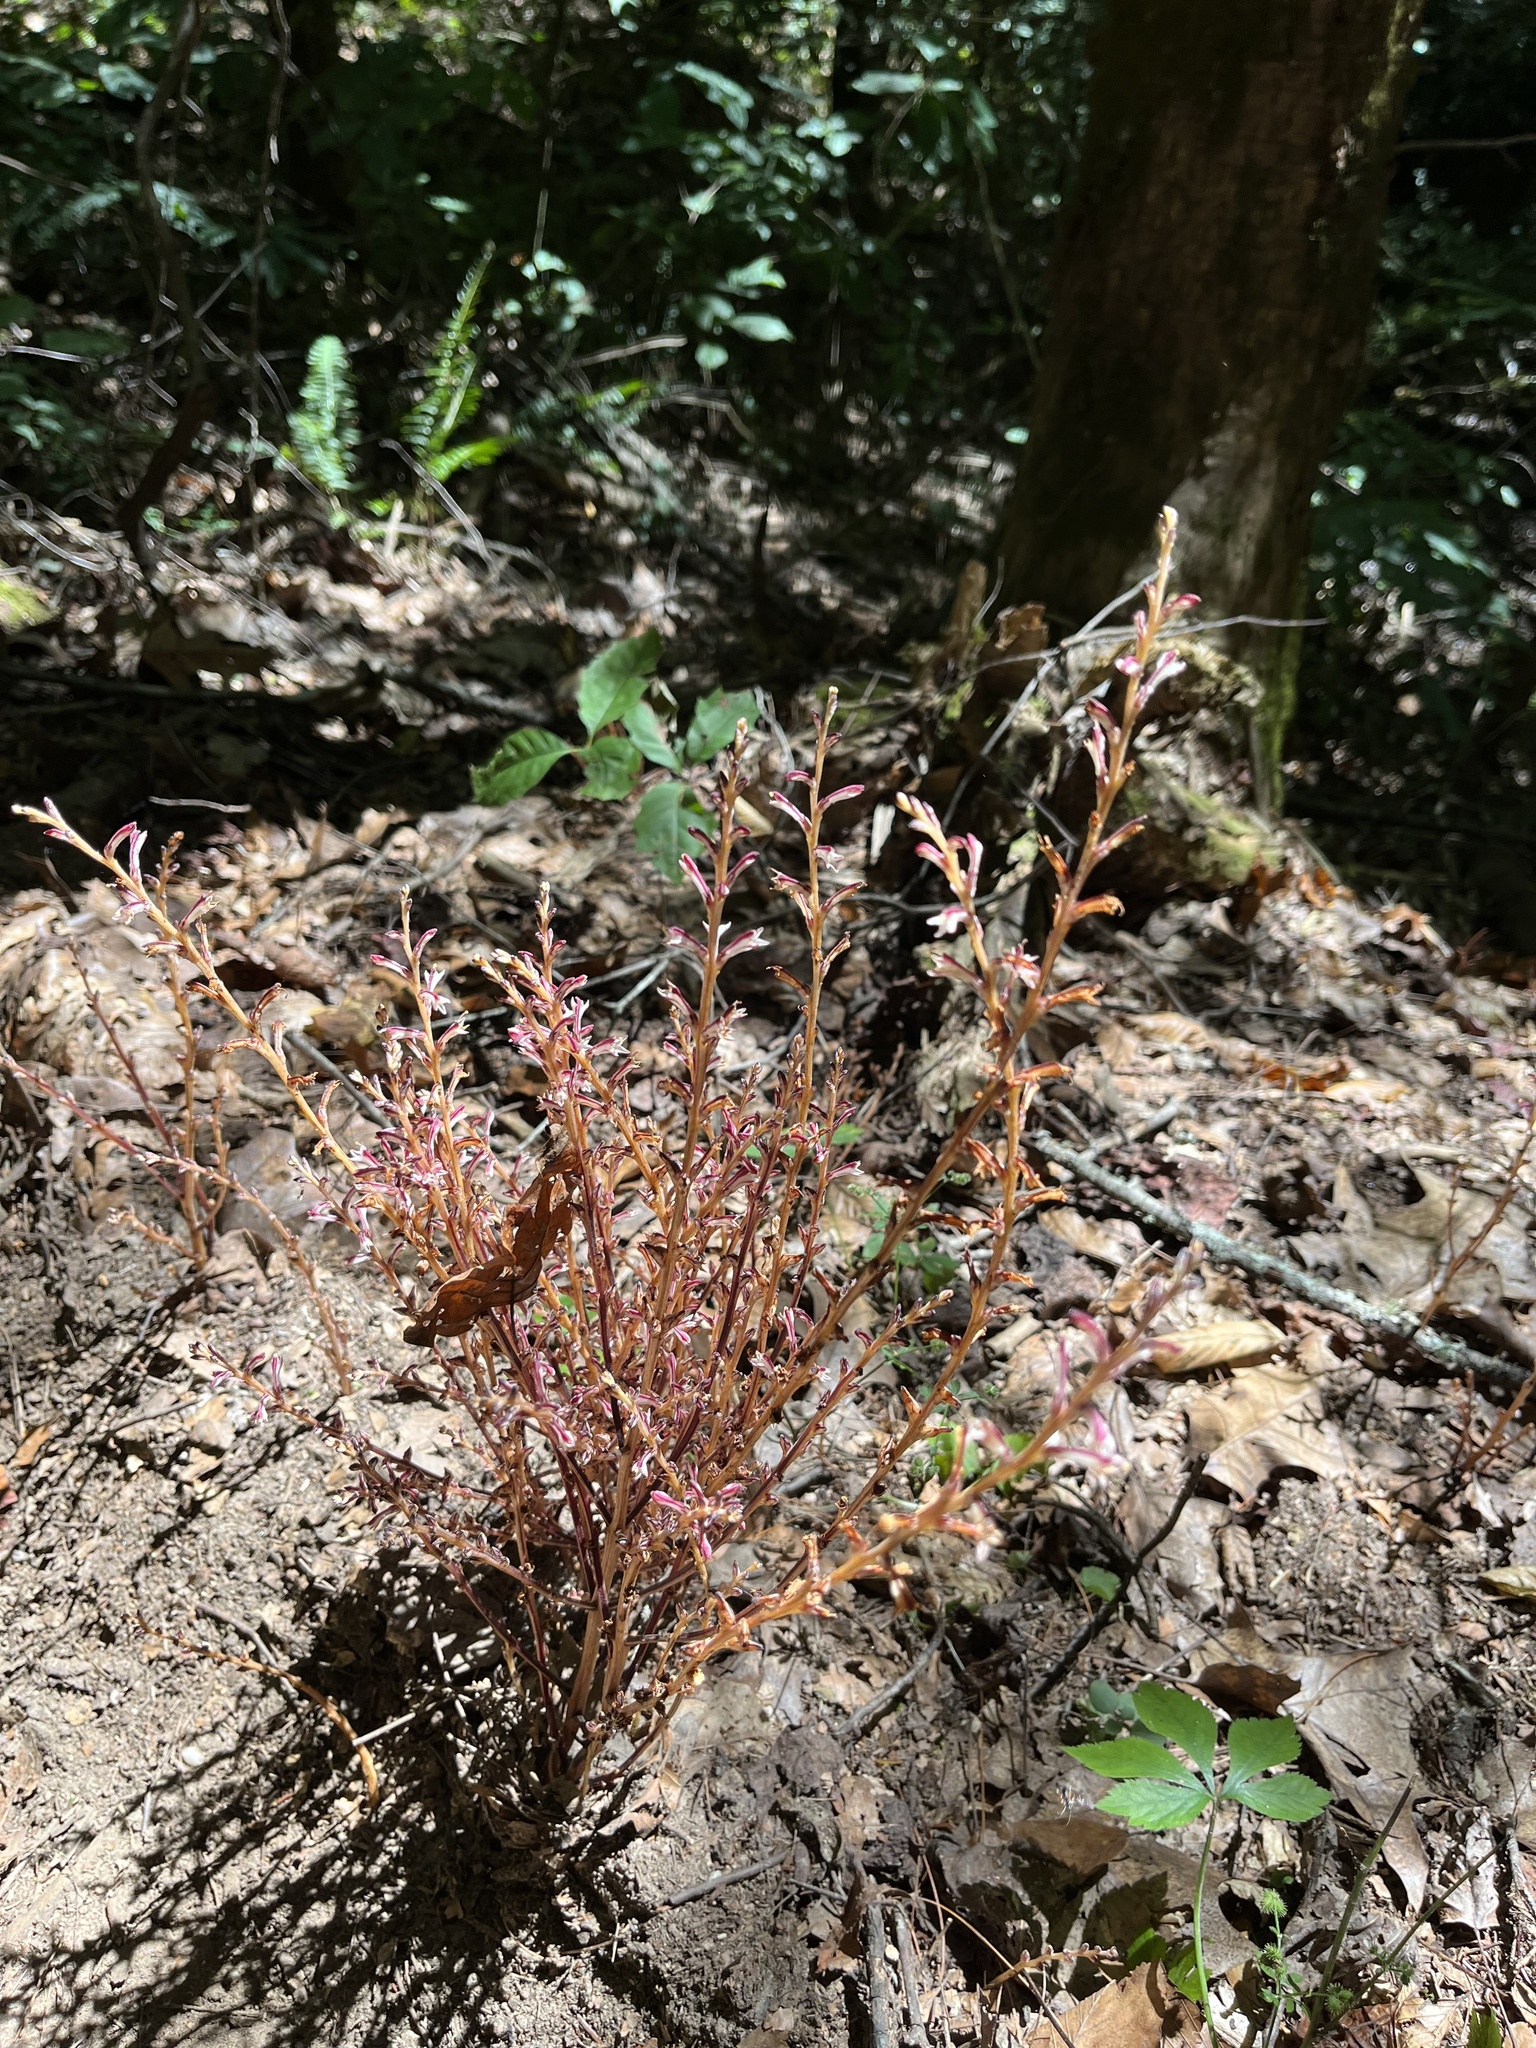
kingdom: Plantae
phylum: Tracheophyta
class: Magnoliopsida
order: Lamiales
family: Orobanchaceae
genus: Epifagus
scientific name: Epifagus virginiana
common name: Beechdrops
